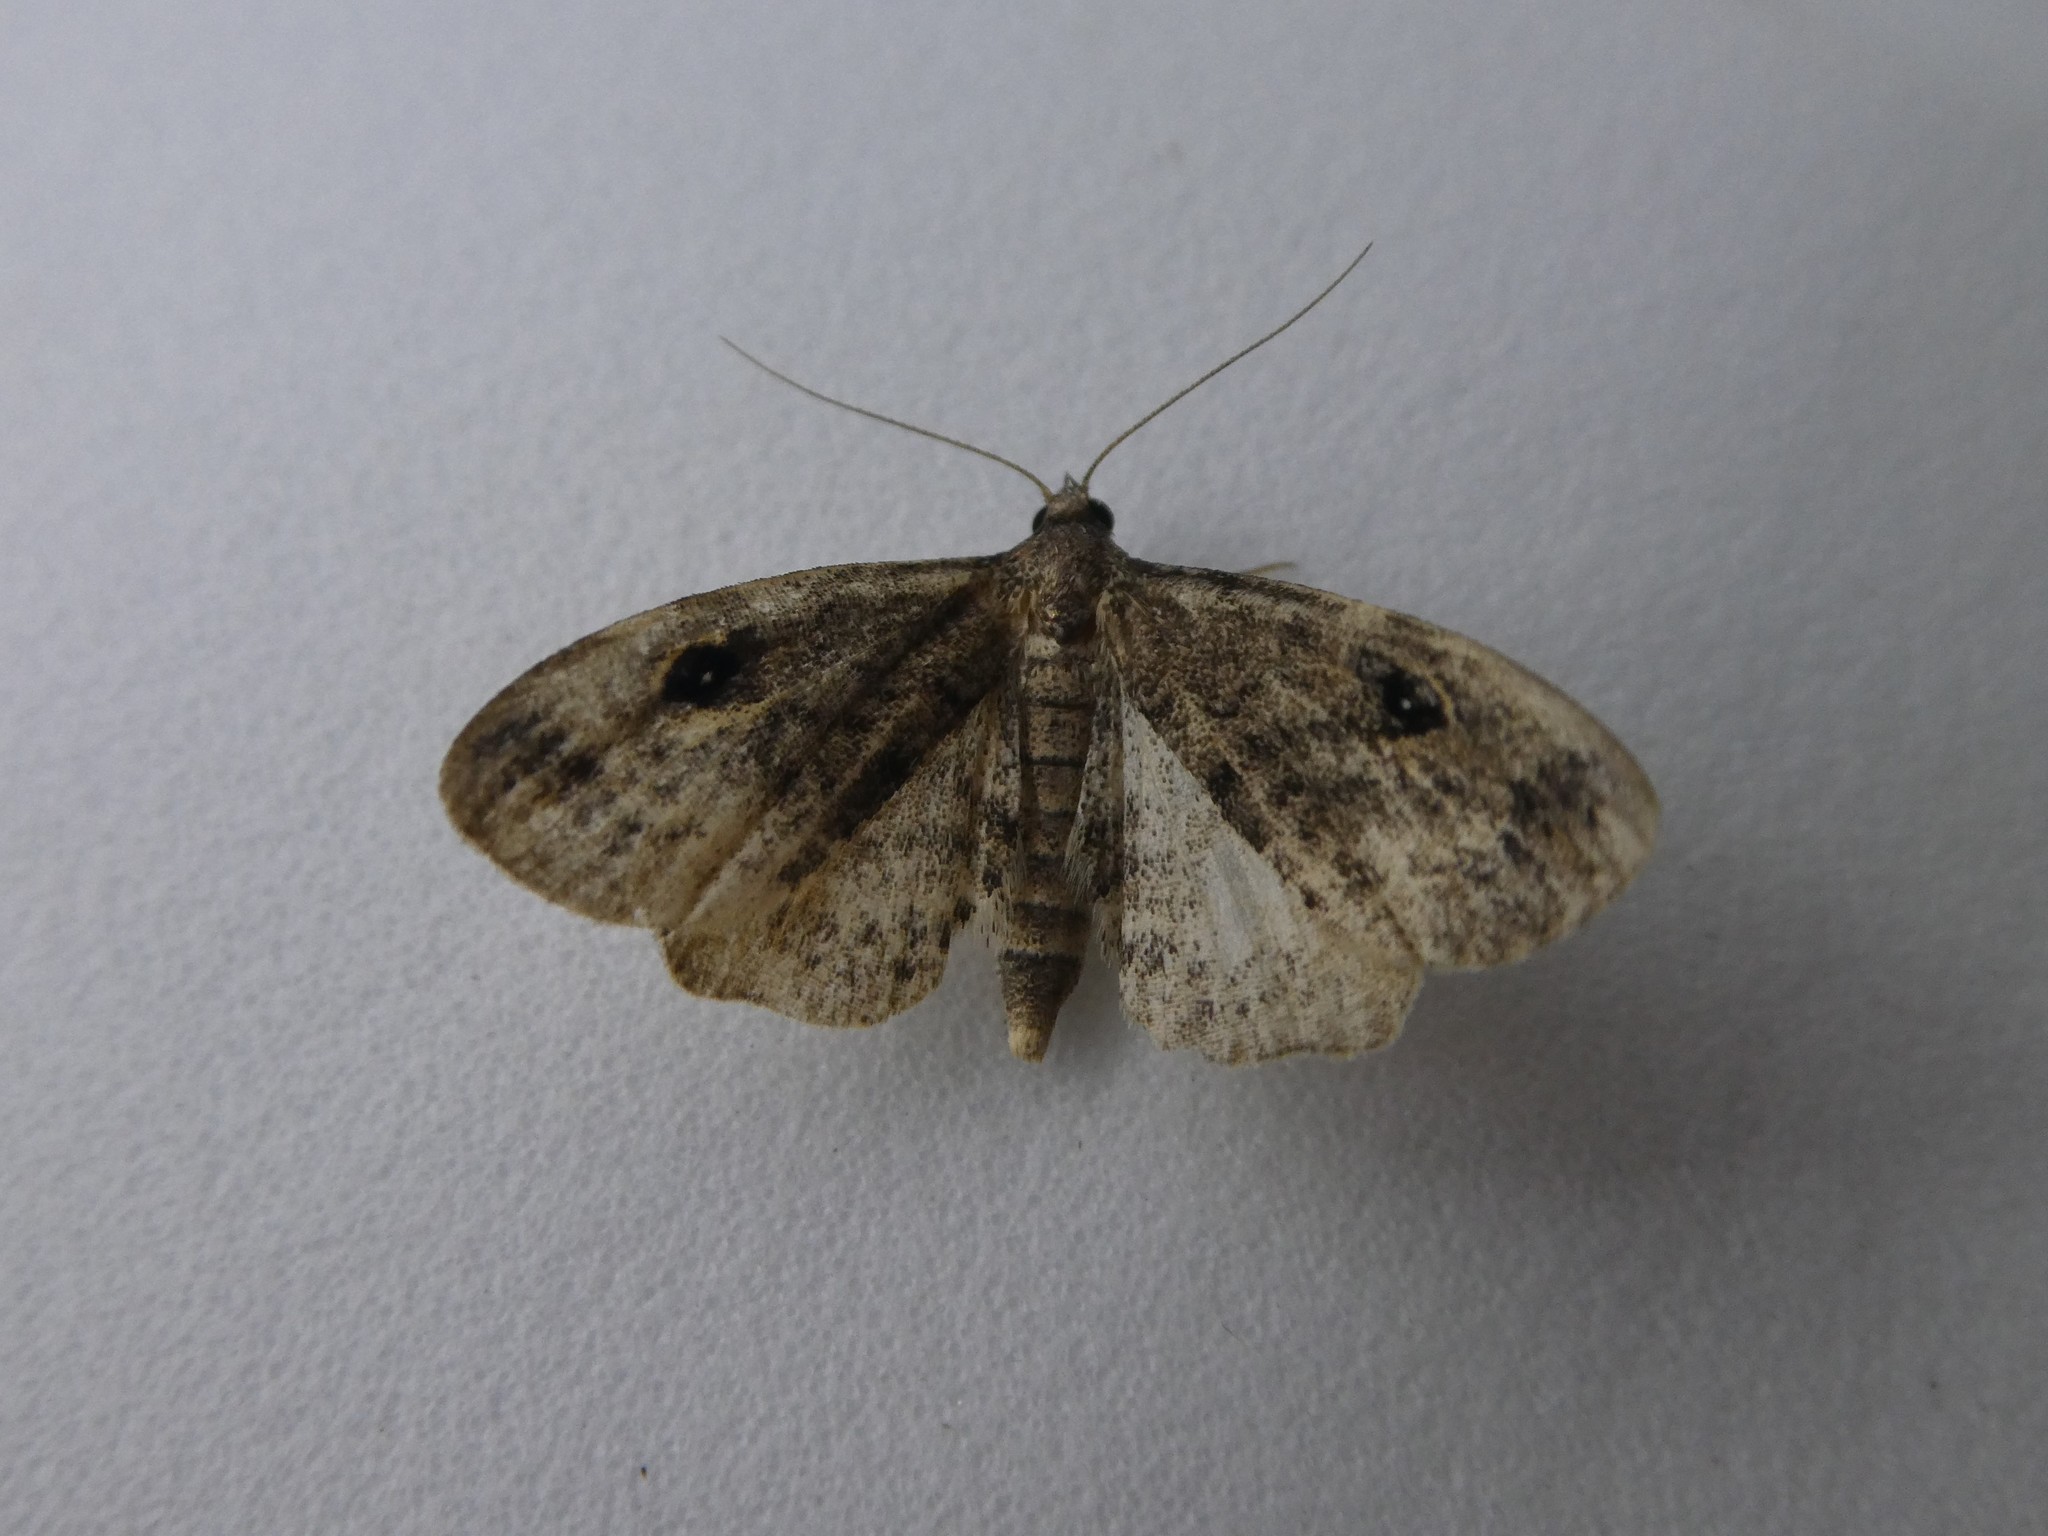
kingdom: Animalia
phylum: Arthropoda
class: Insecta
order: Lepidoptera
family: Erebidae
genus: Melanomma
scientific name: Melanomma auricinctaria
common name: Gold-lined melanomma moth
